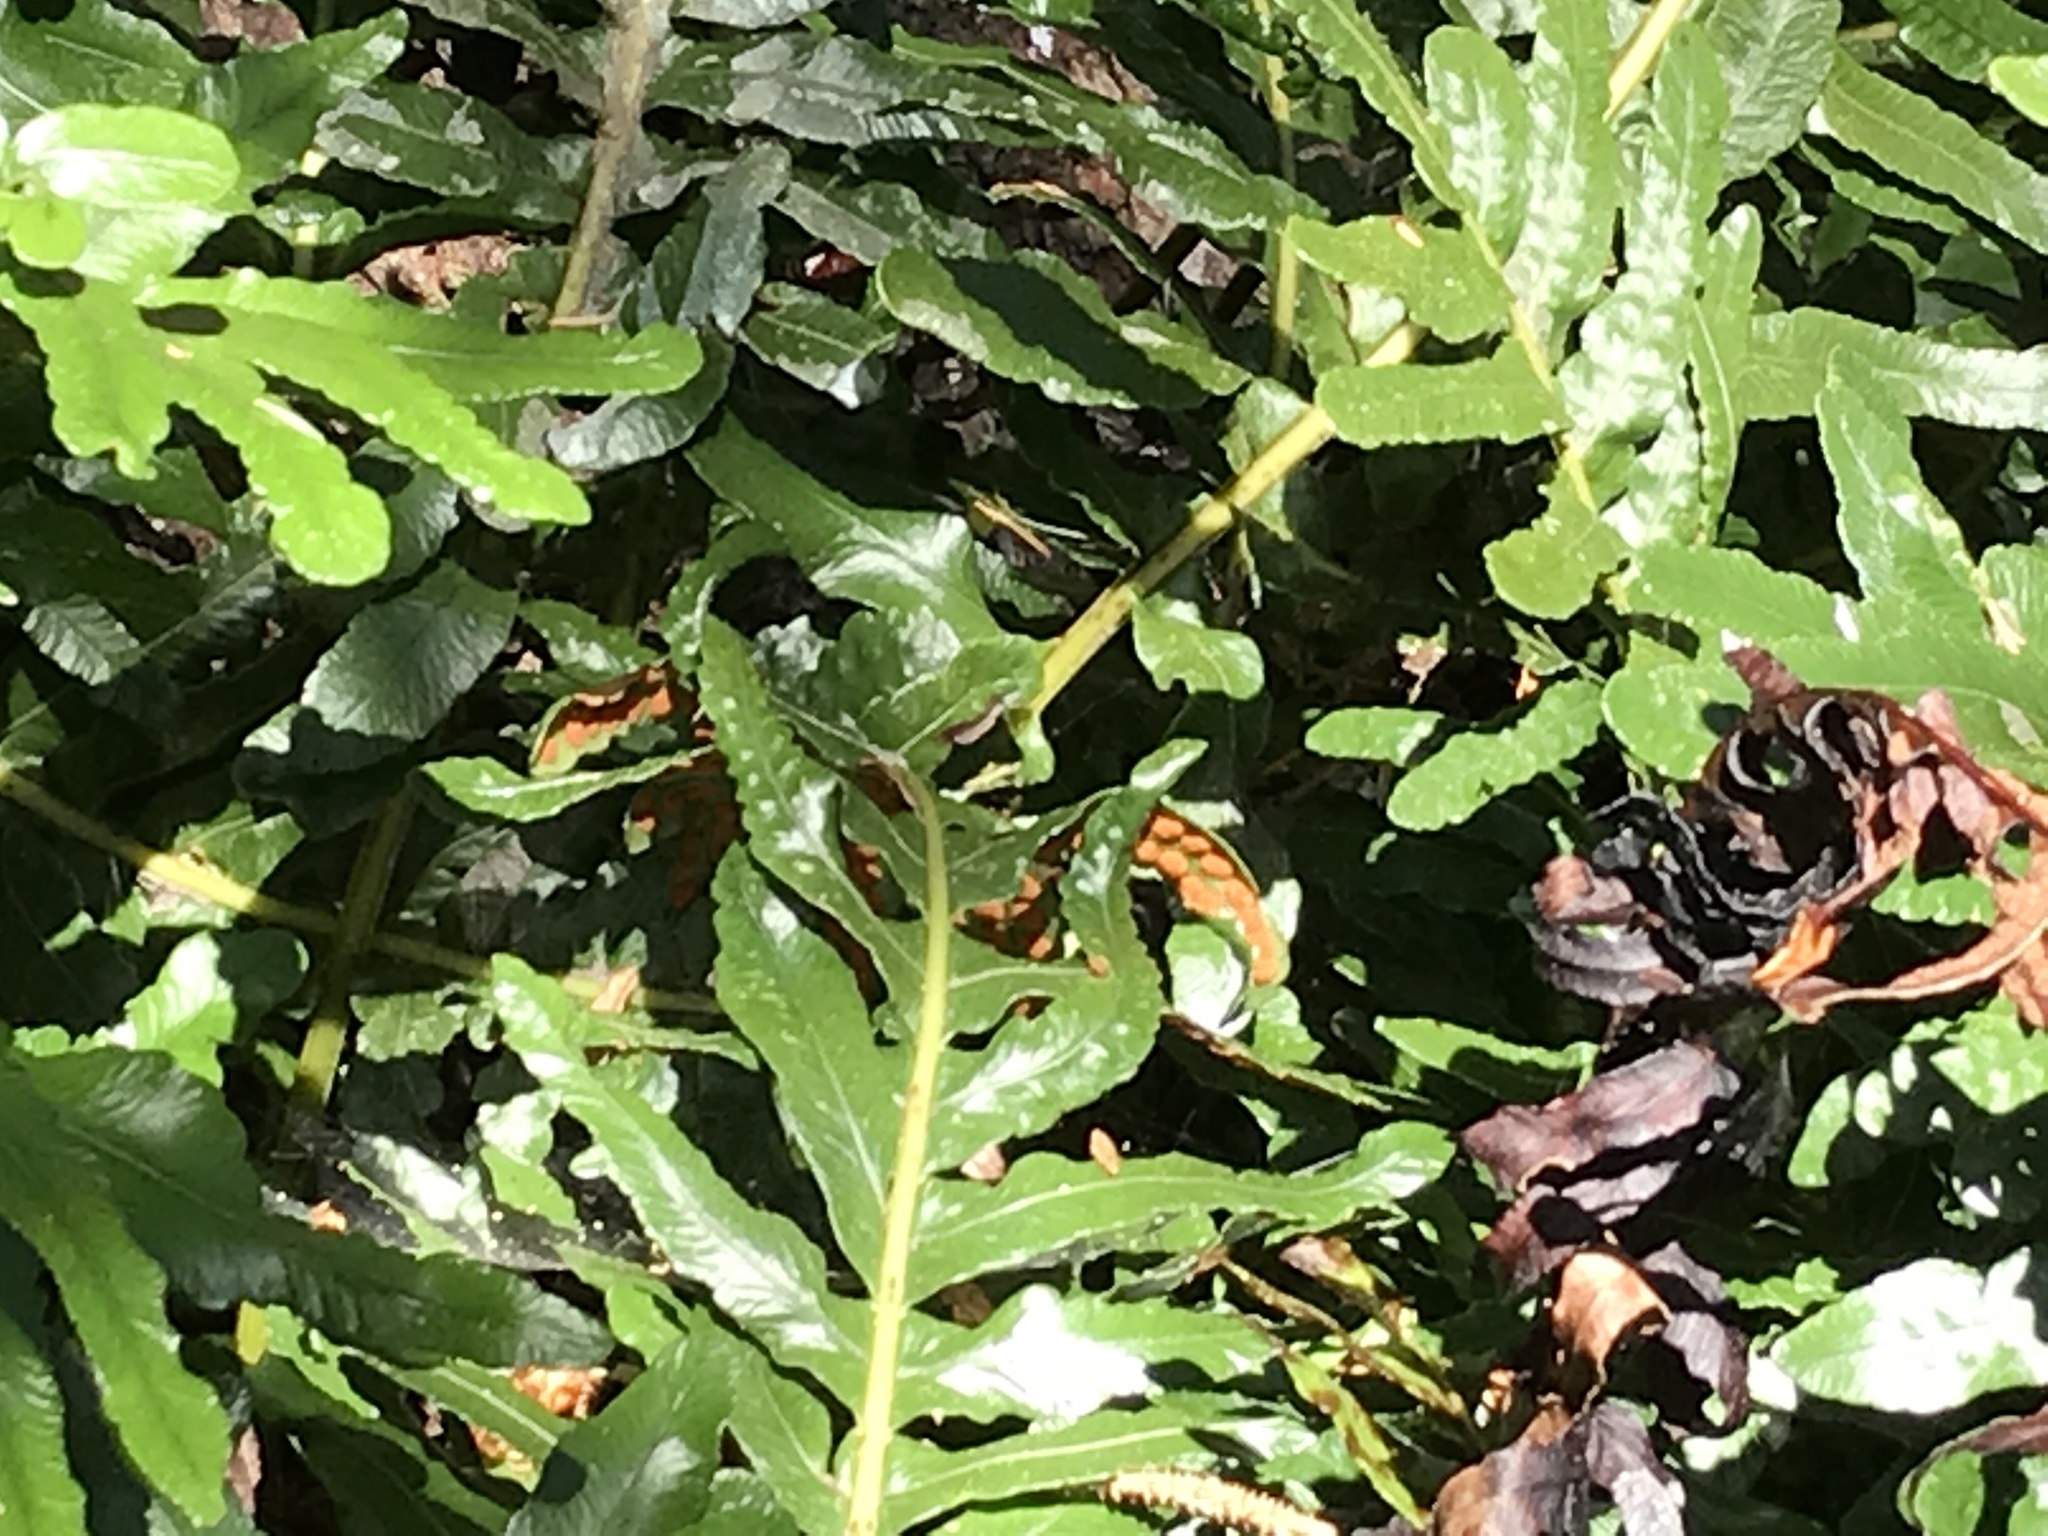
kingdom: Plantae
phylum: Tracheophyta
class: Polypodiopsida
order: Polypodiales
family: Polypodiaceae
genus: Polypodium
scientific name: Polypodium scouleri
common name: Scouler's polypody
